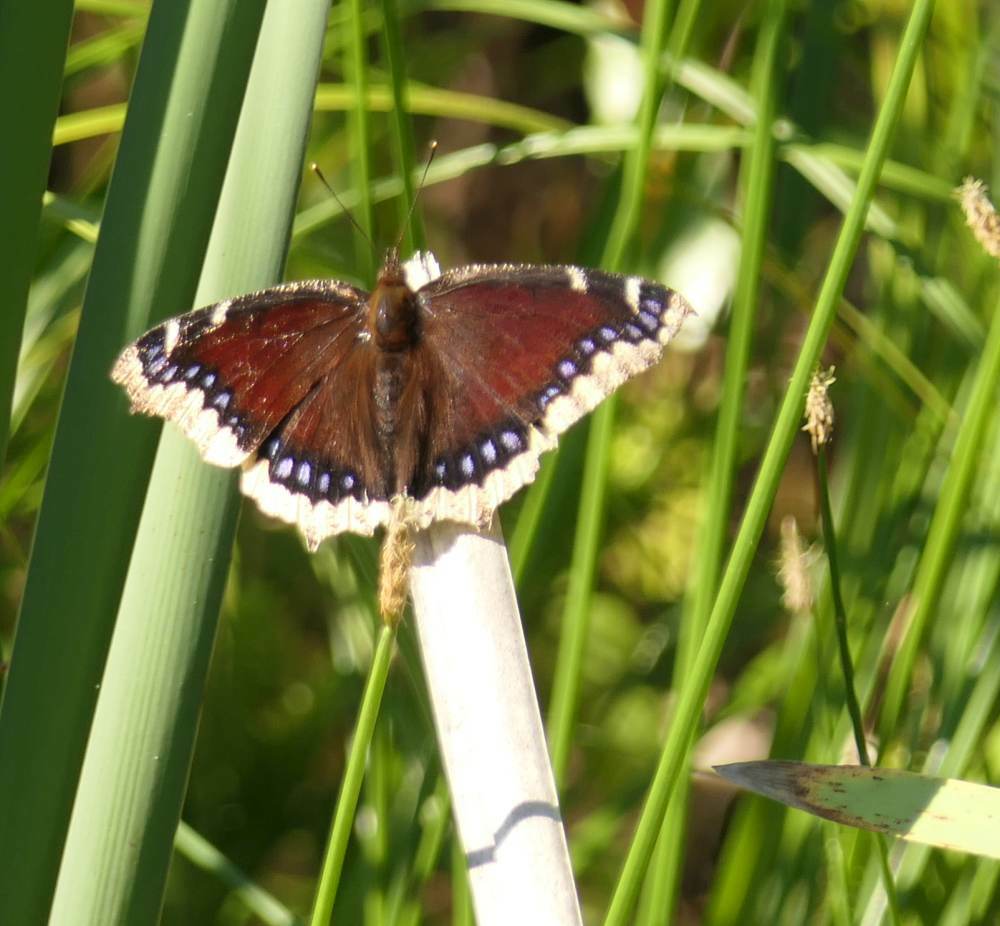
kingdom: Animalia
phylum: Arthropoda
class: Insecta
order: Lepidoptera
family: Nymphalidae
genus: Nymphalis
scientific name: Nymphalis antiopa
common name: Camberwell beauty
